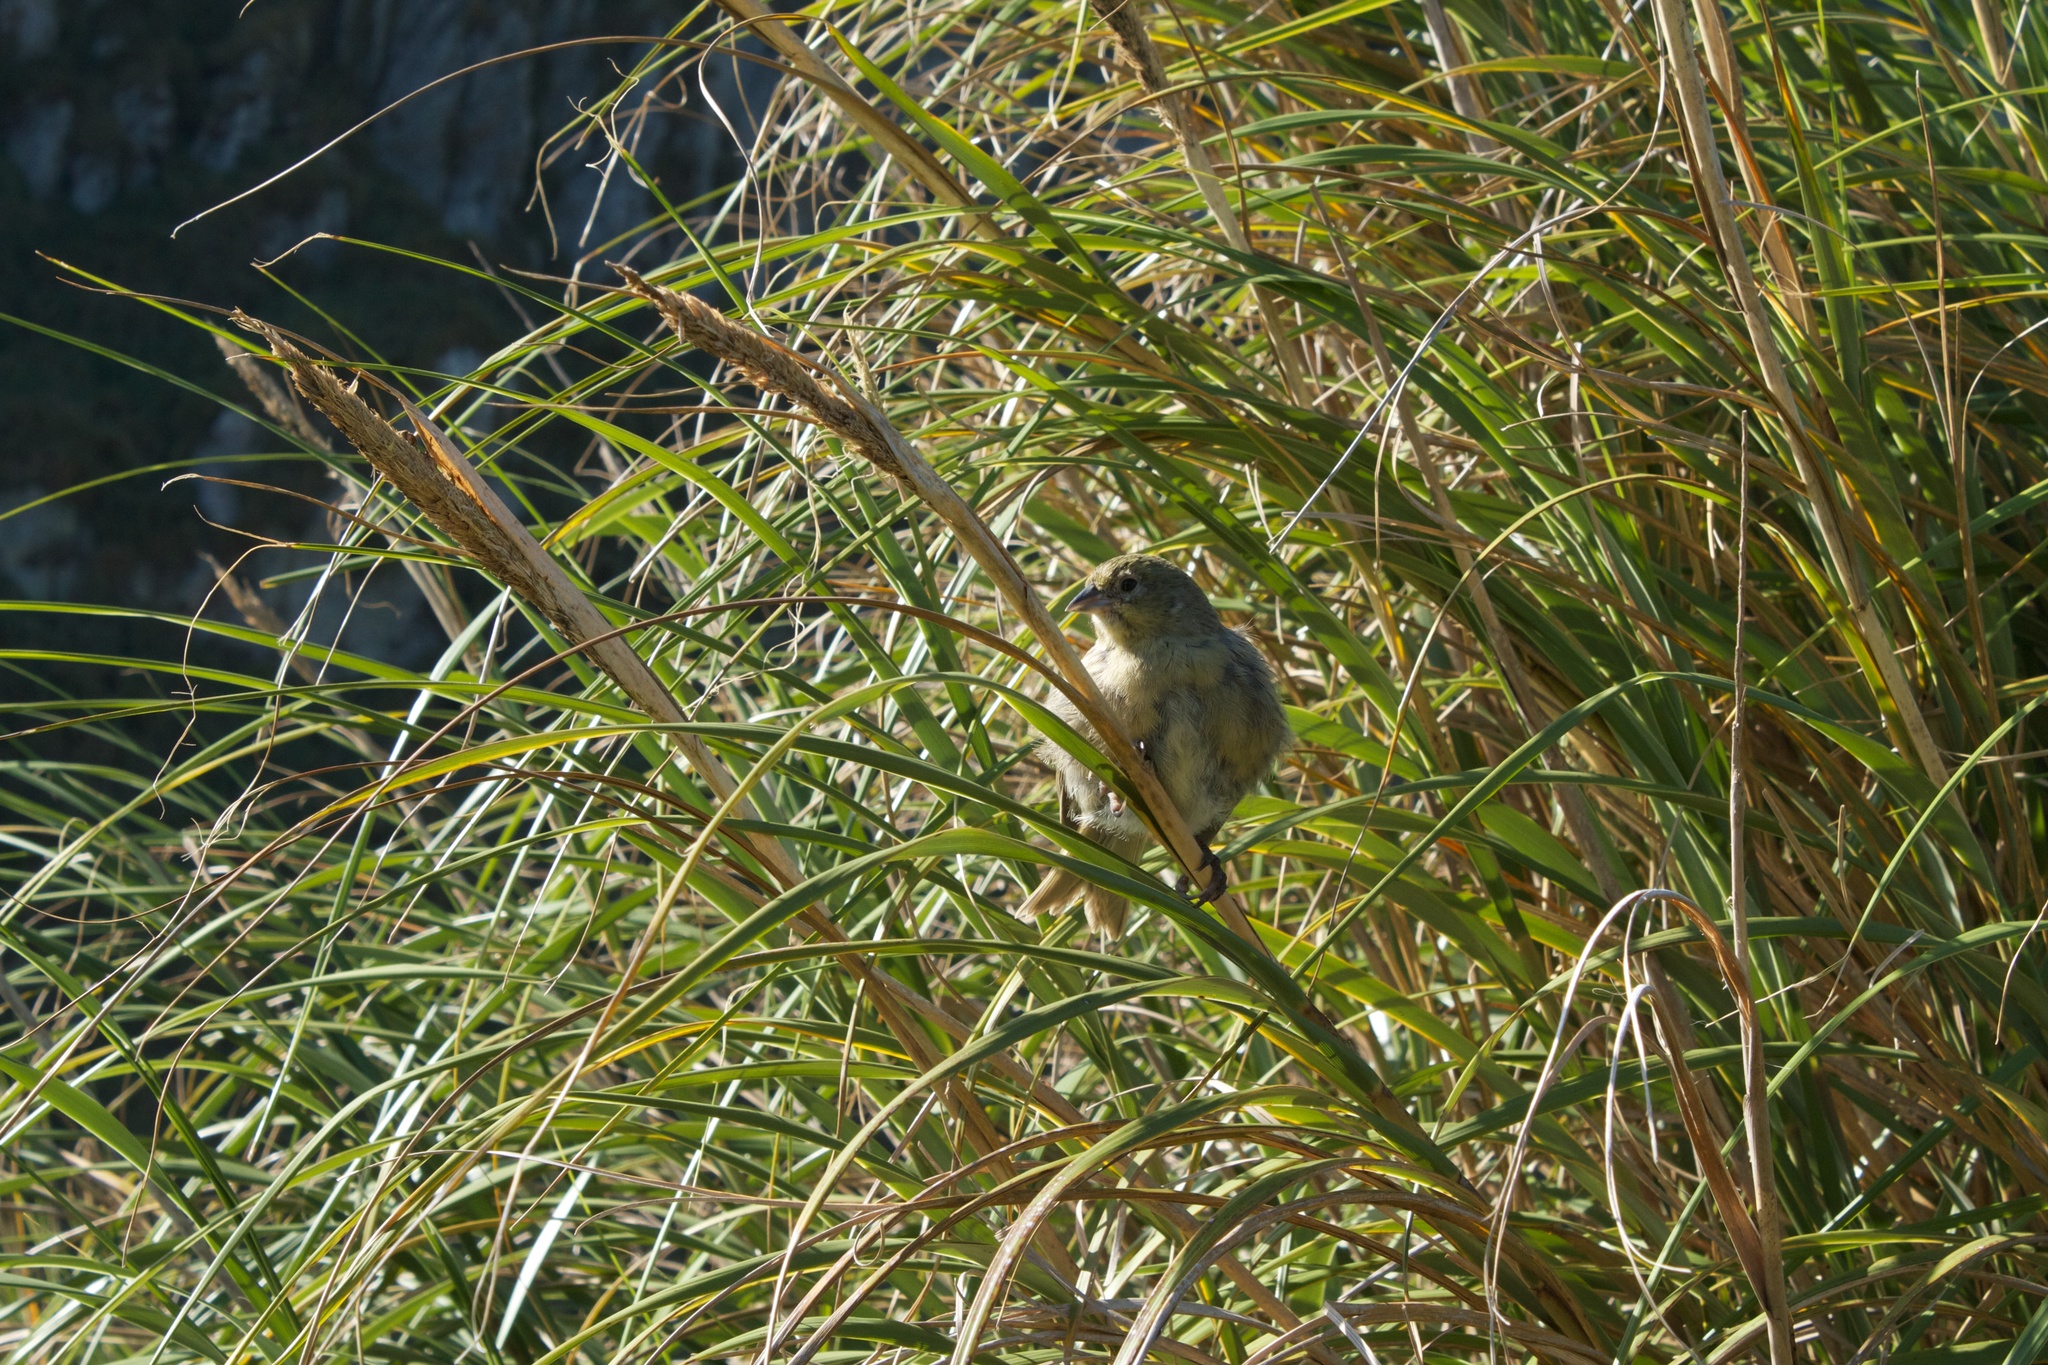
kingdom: Animalia
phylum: Chordata
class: Aves
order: Passeriformes
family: Thraupidae
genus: Nesospiza
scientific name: Nesospiza questi
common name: Nightingale island finch
